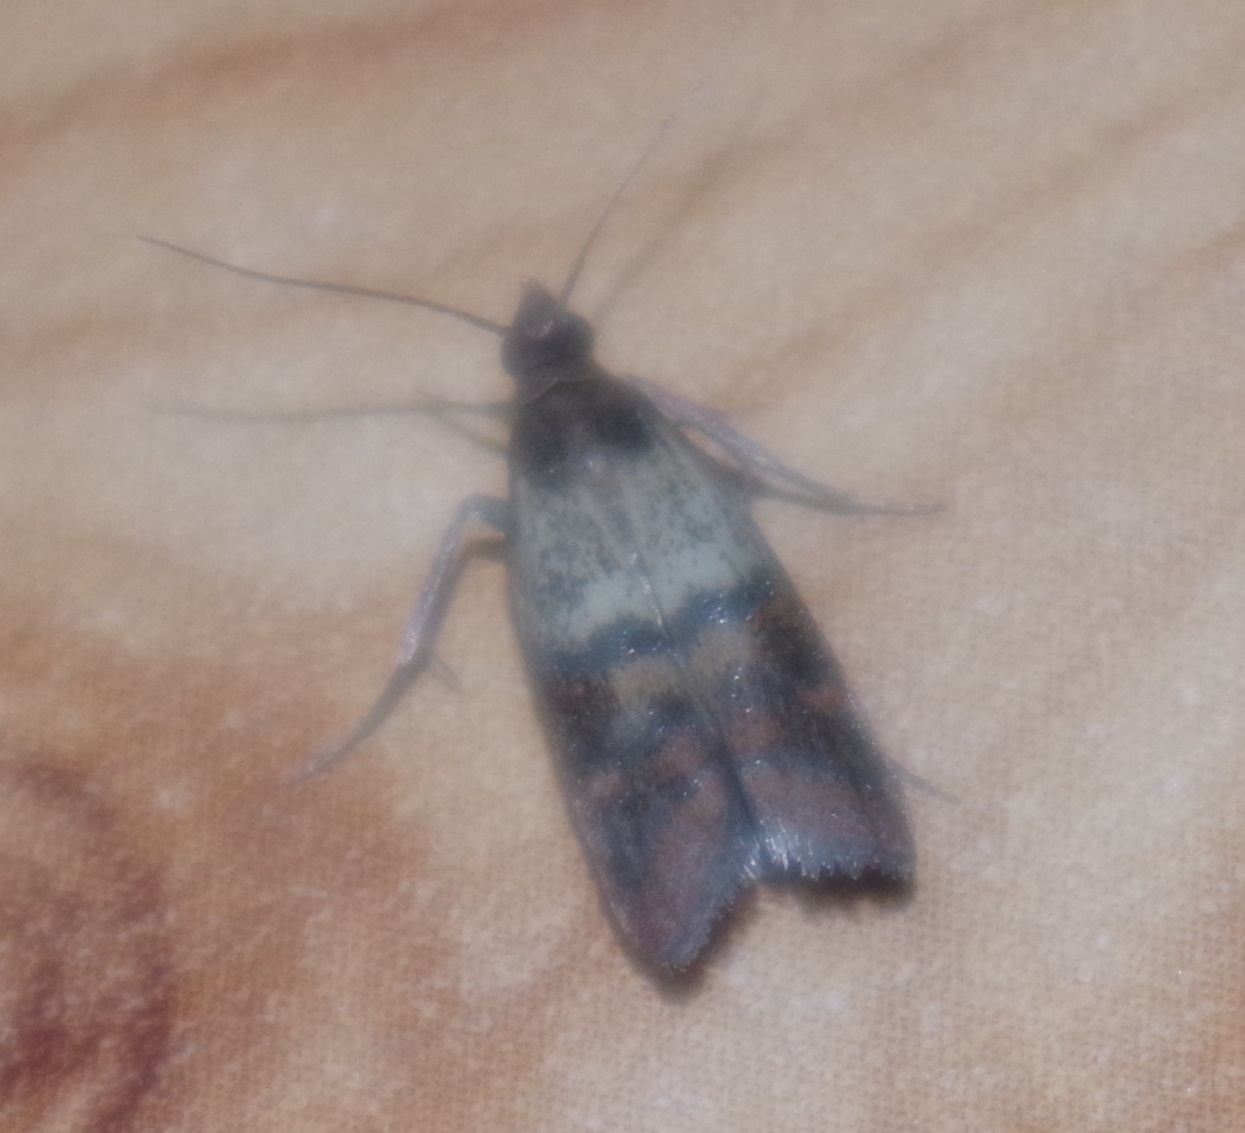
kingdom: Animalia
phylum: Arthropoda
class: Insecta
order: Lepidoptera
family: Pyralidae
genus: Plodia
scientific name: Plodia interpunctella
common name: Indian meal moth
